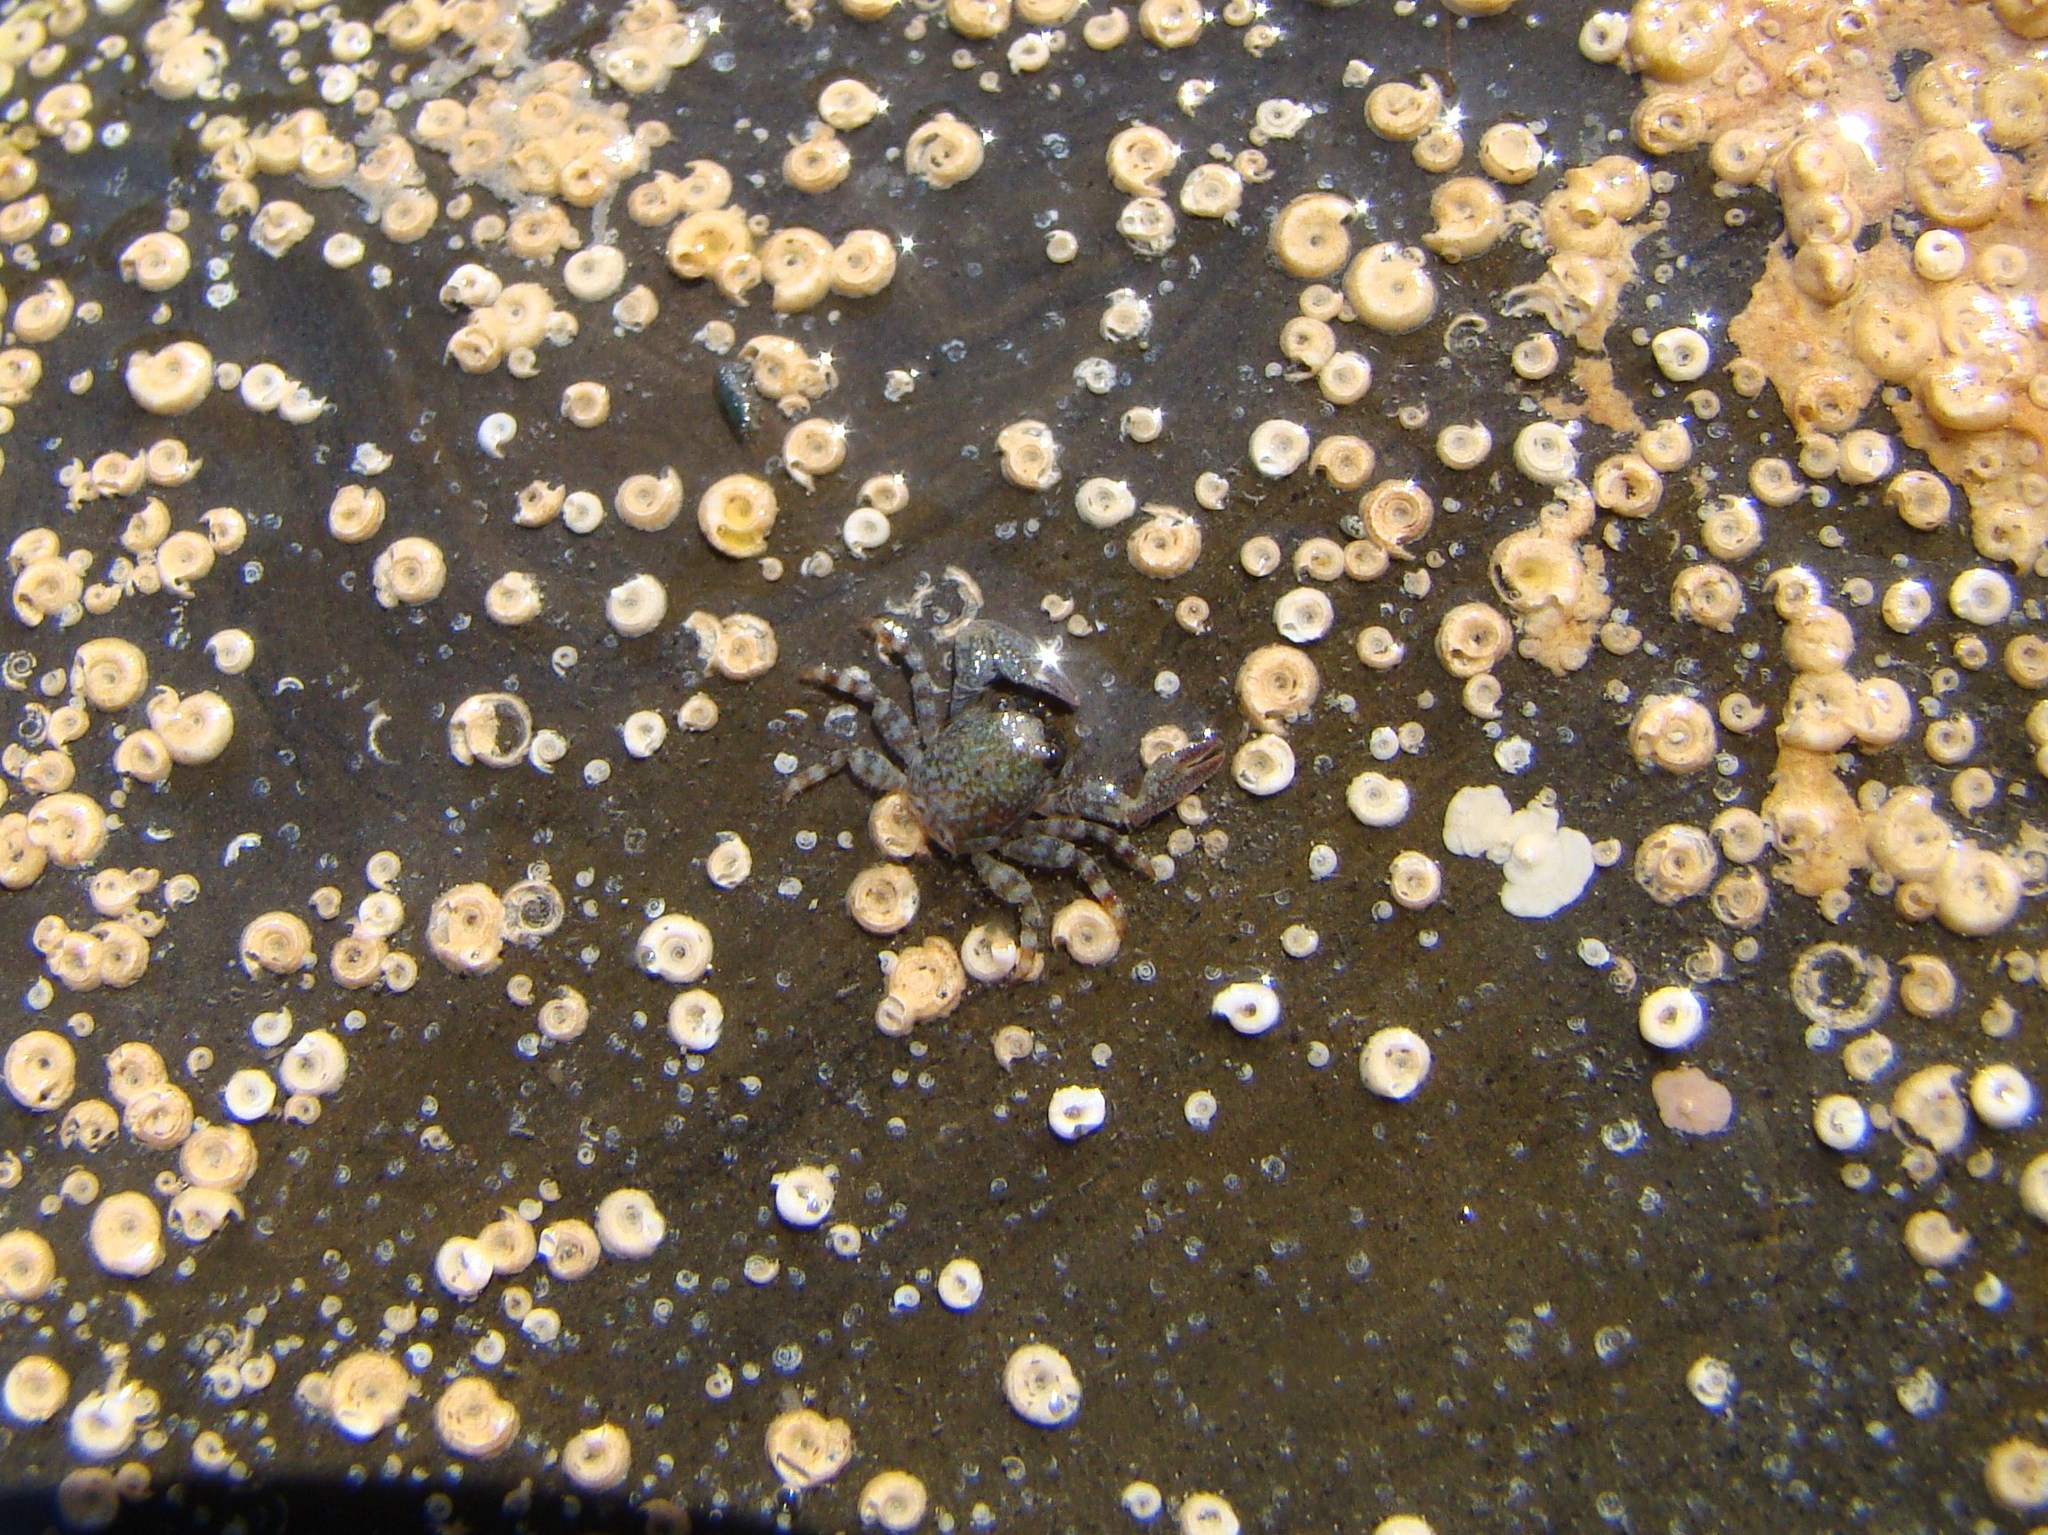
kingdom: Animalia
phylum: Arthropoda
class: Malacostraca
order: Decapoda
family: Porcellanidae
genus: Petrolisthes
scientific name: Petrolisthes elongatus
